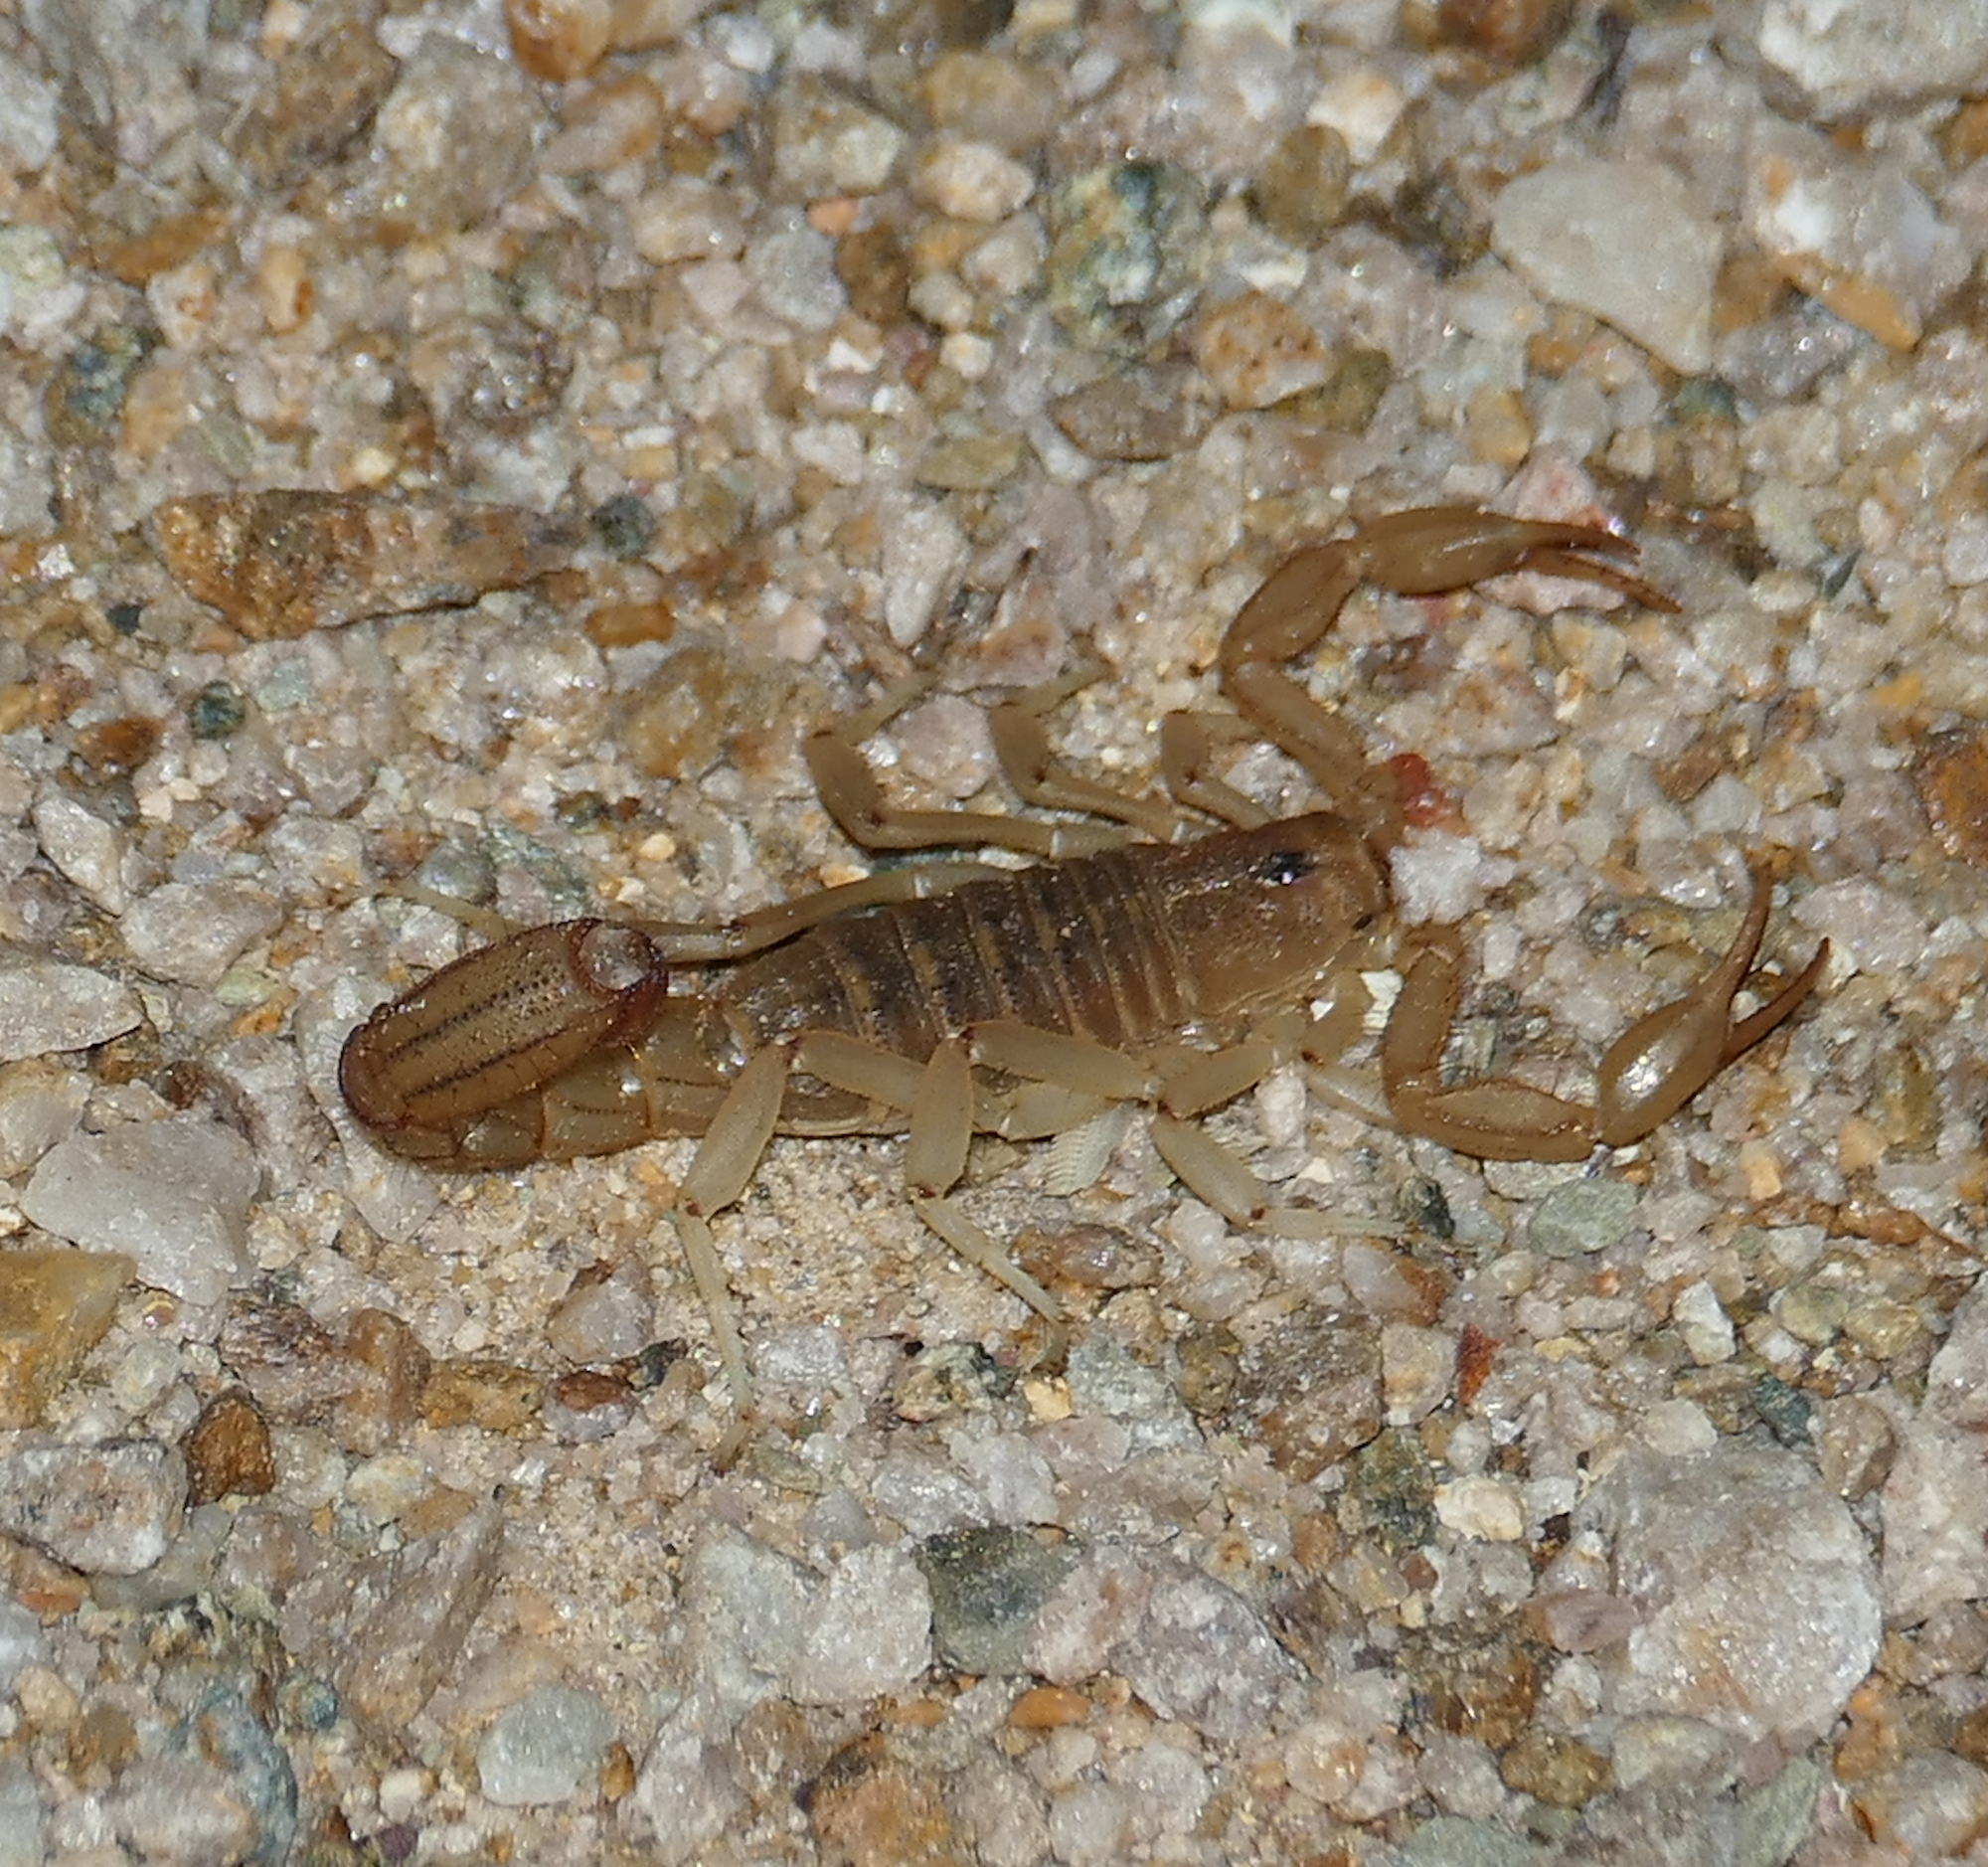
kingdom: Animalia
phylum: Arthropoda
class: Arachnida
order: Scorpiones
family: Vaejovidae
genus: Paravaejovis
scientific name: Paravaejovis spinigerus
